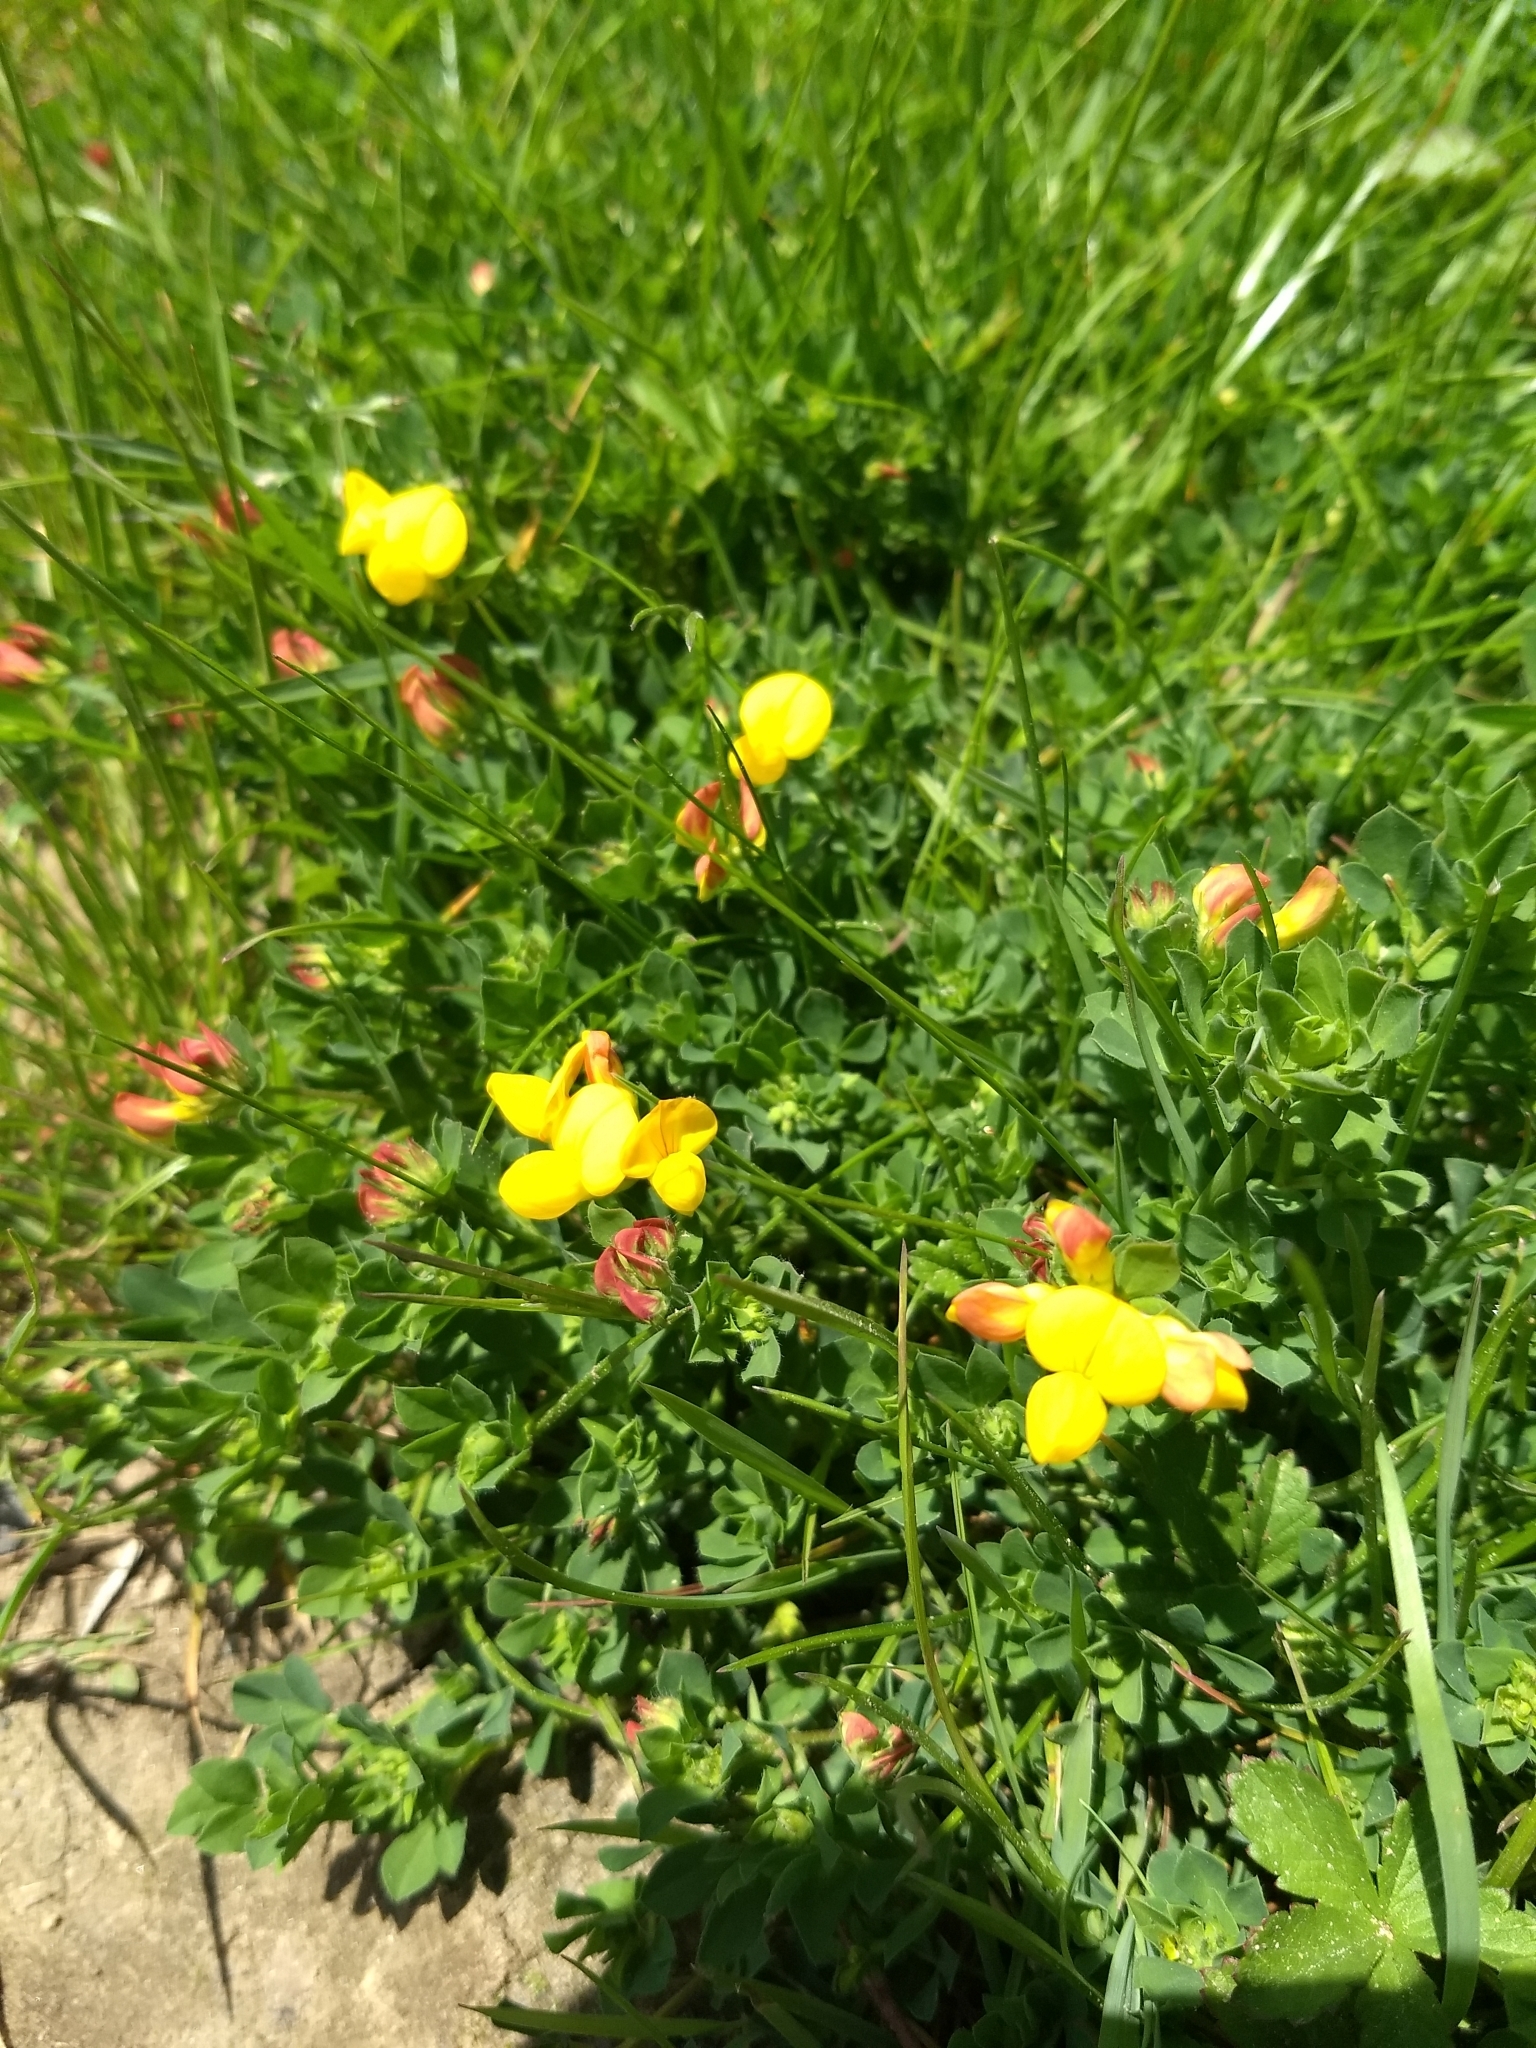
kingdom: Plantae
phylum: Tracheophyta
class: Magnoliopsida
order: Fabales
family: Fabaceae
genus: Lotus
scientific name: Lotus corniculatus
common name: Common bird's-foot-trefoil
